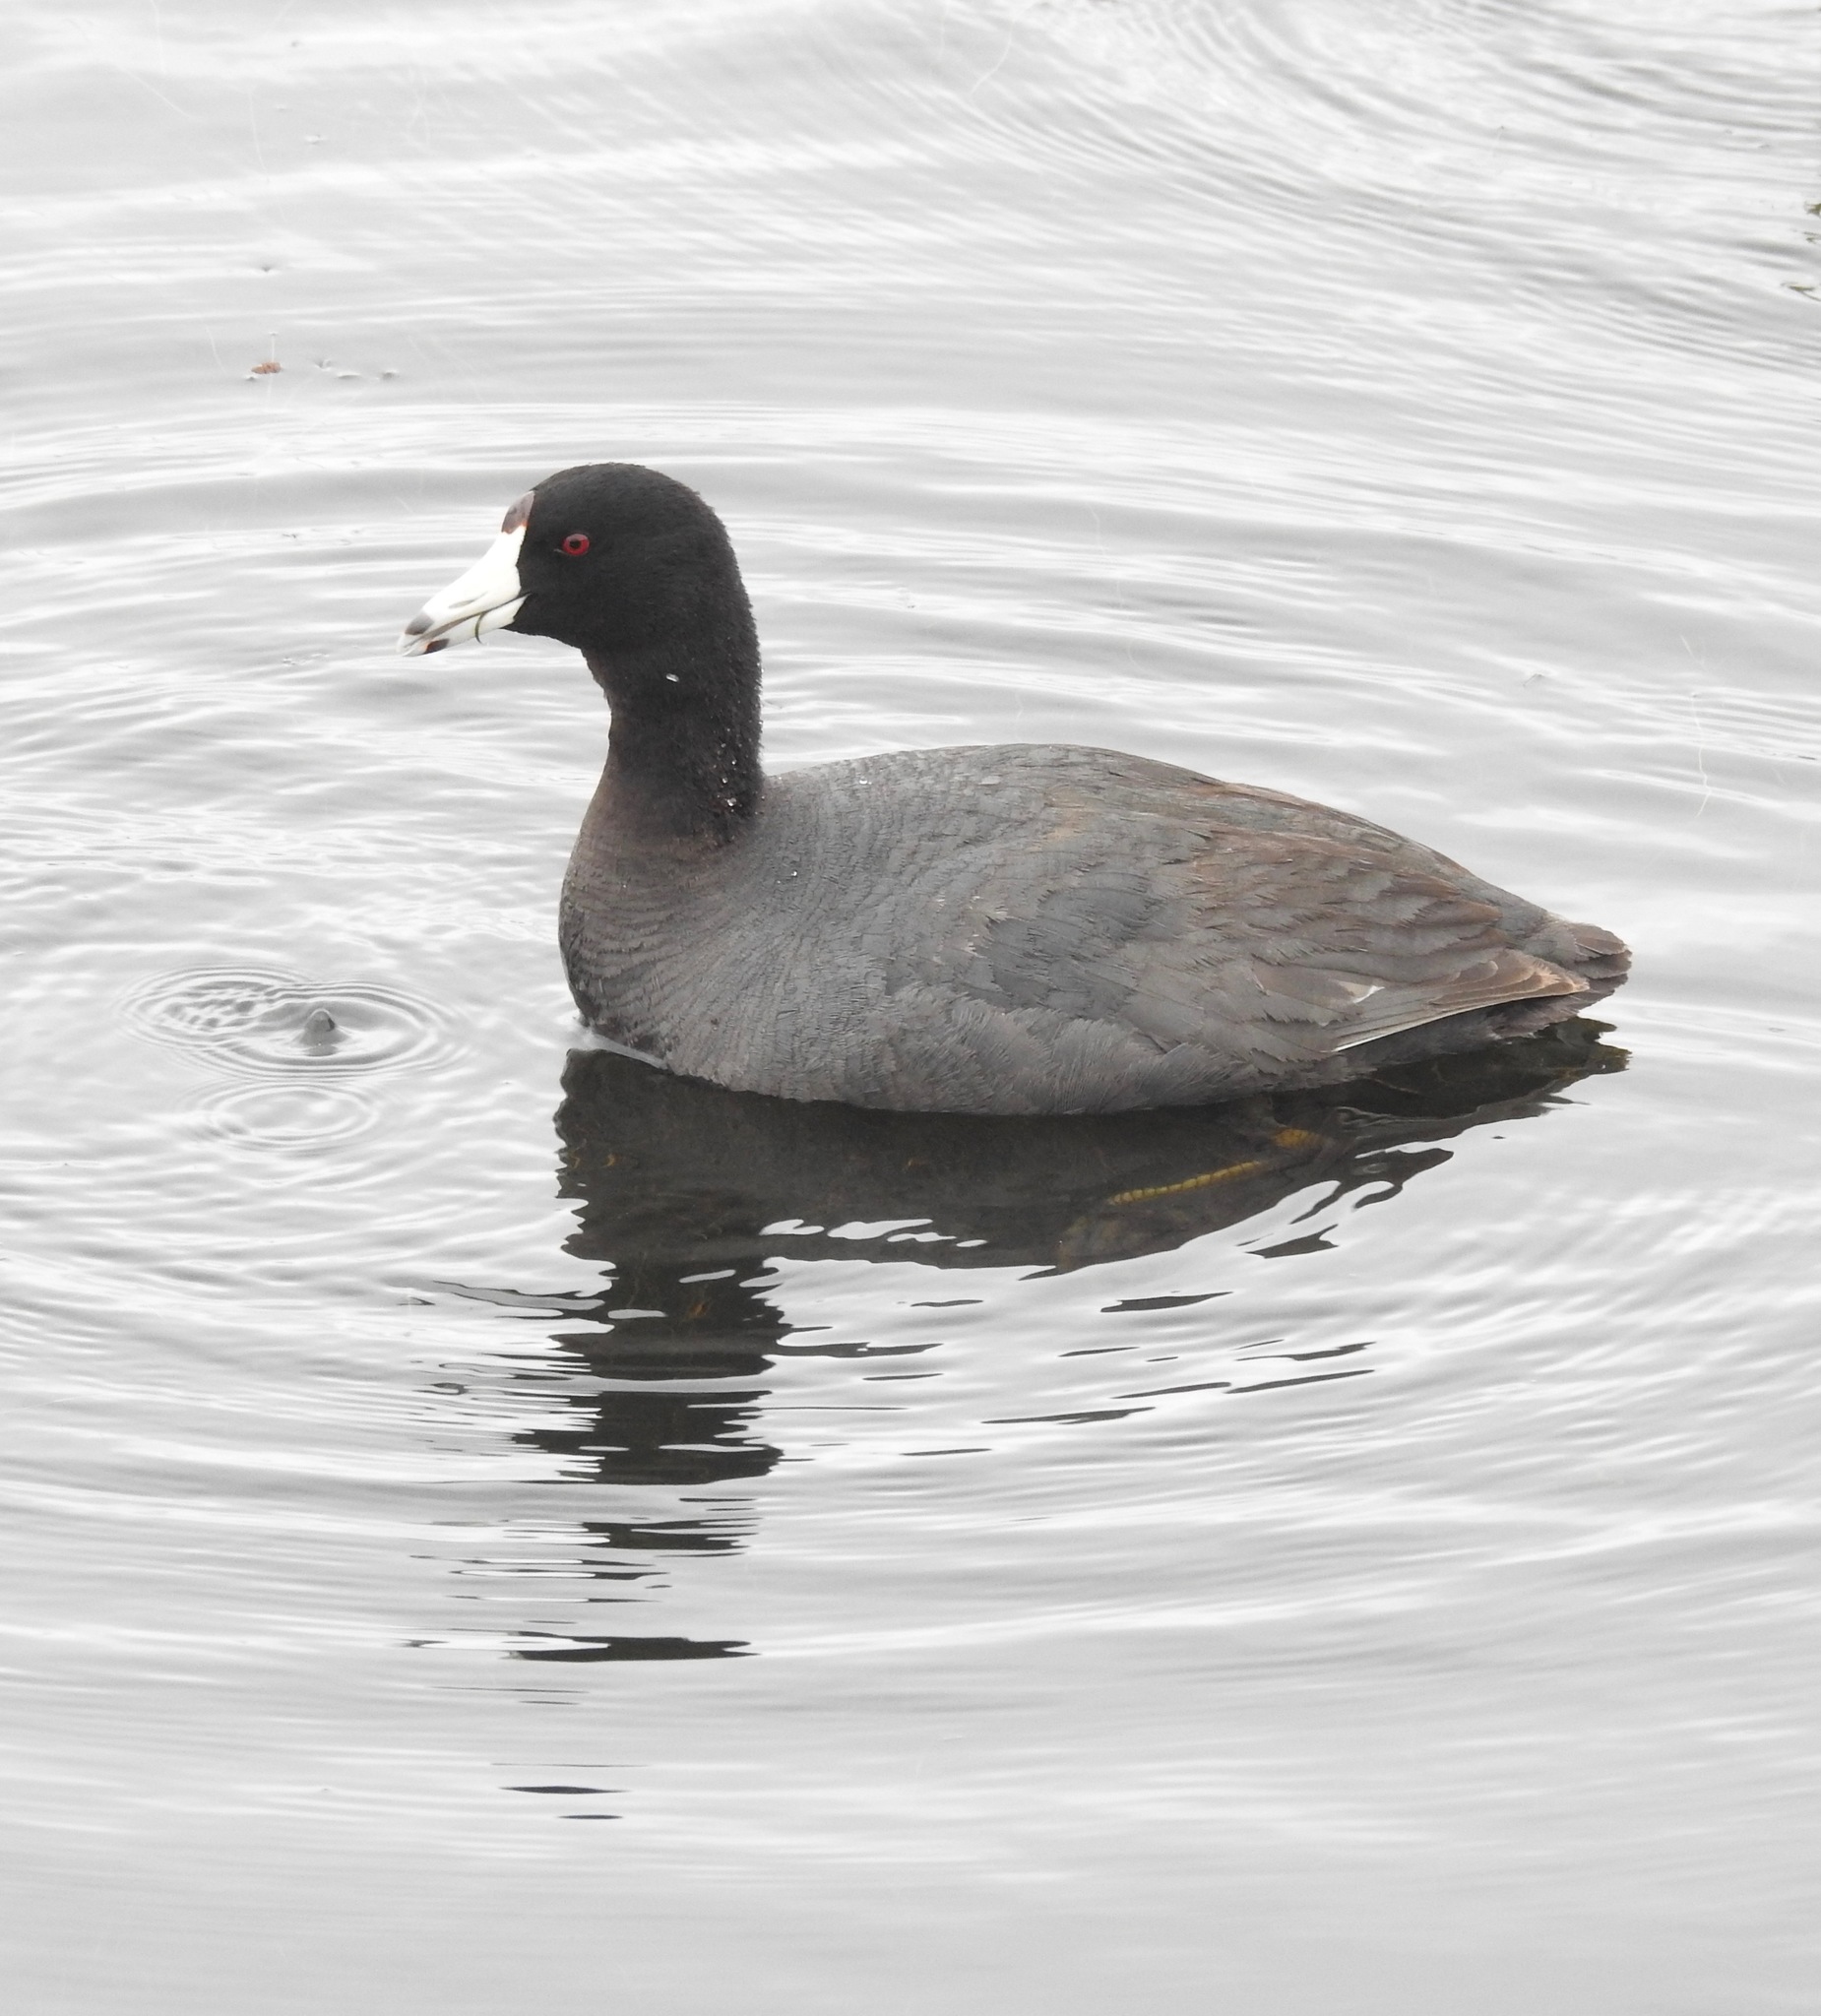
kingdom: Animalia
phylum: Chordata
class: Aves
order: Gruiformes
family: Rallidae
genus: Fulica
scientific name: Fulica americana
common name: American coot
